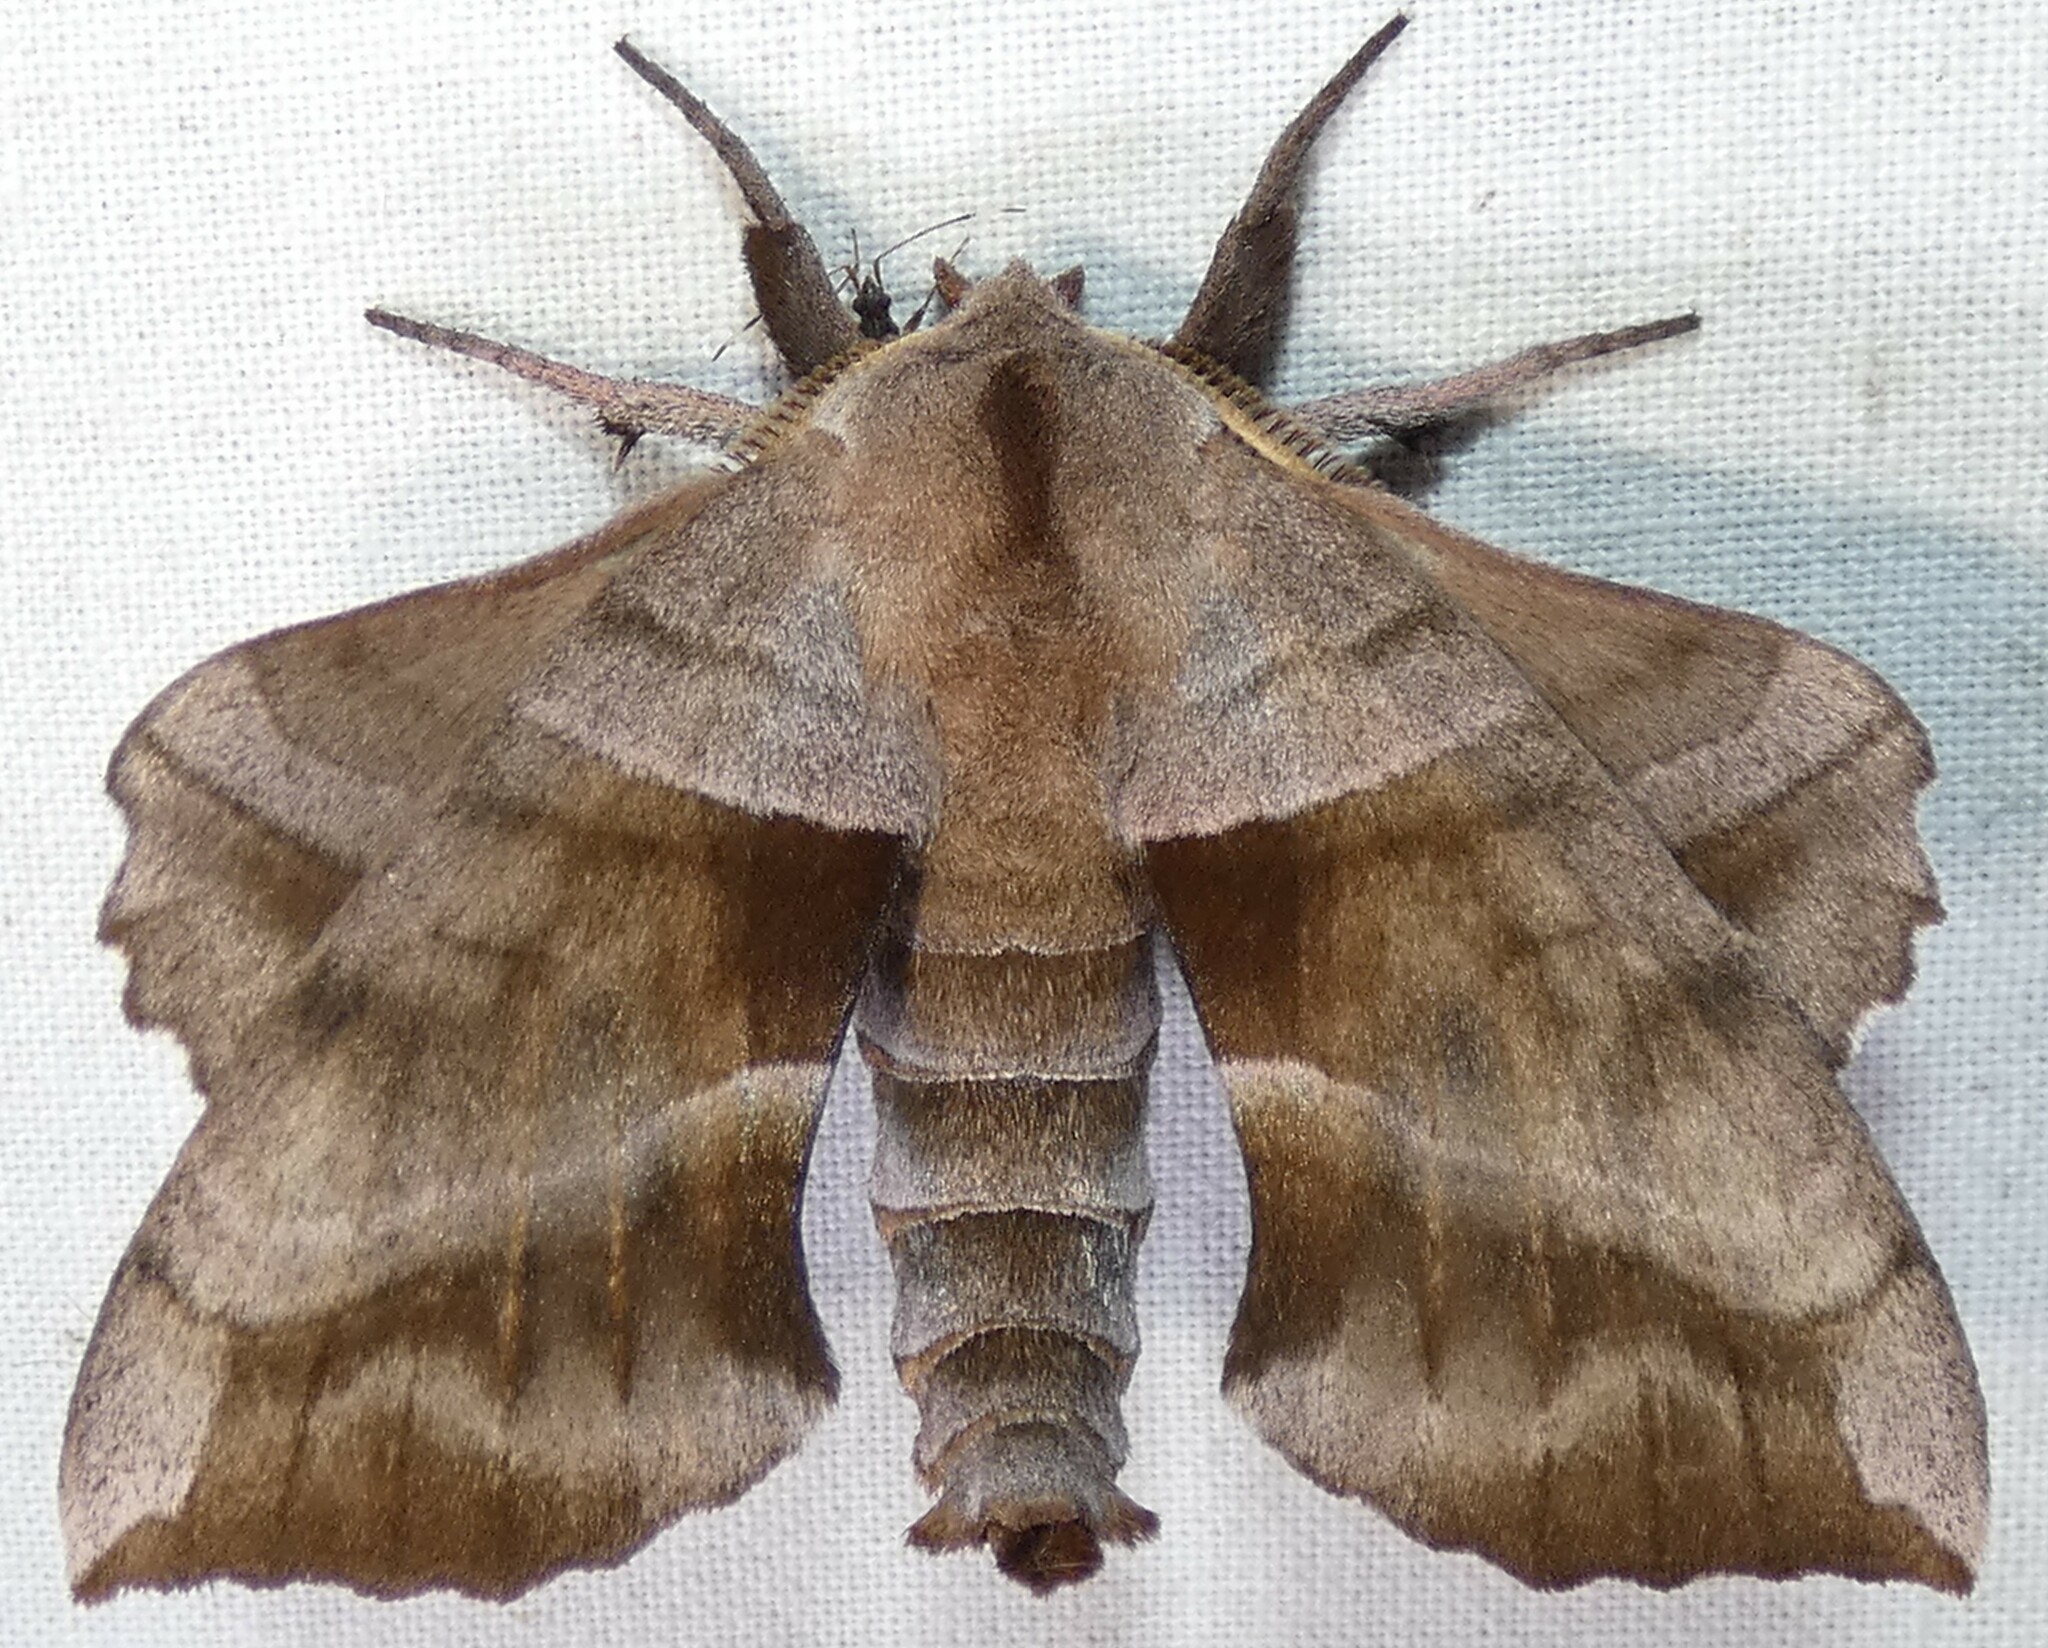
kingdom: Animalia
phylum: Arthropoda
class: Insecta
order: Lepidoptera
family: Sphingidae
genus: Amorpha
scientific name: Amorpha juglandis
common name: Walnut sphinx
